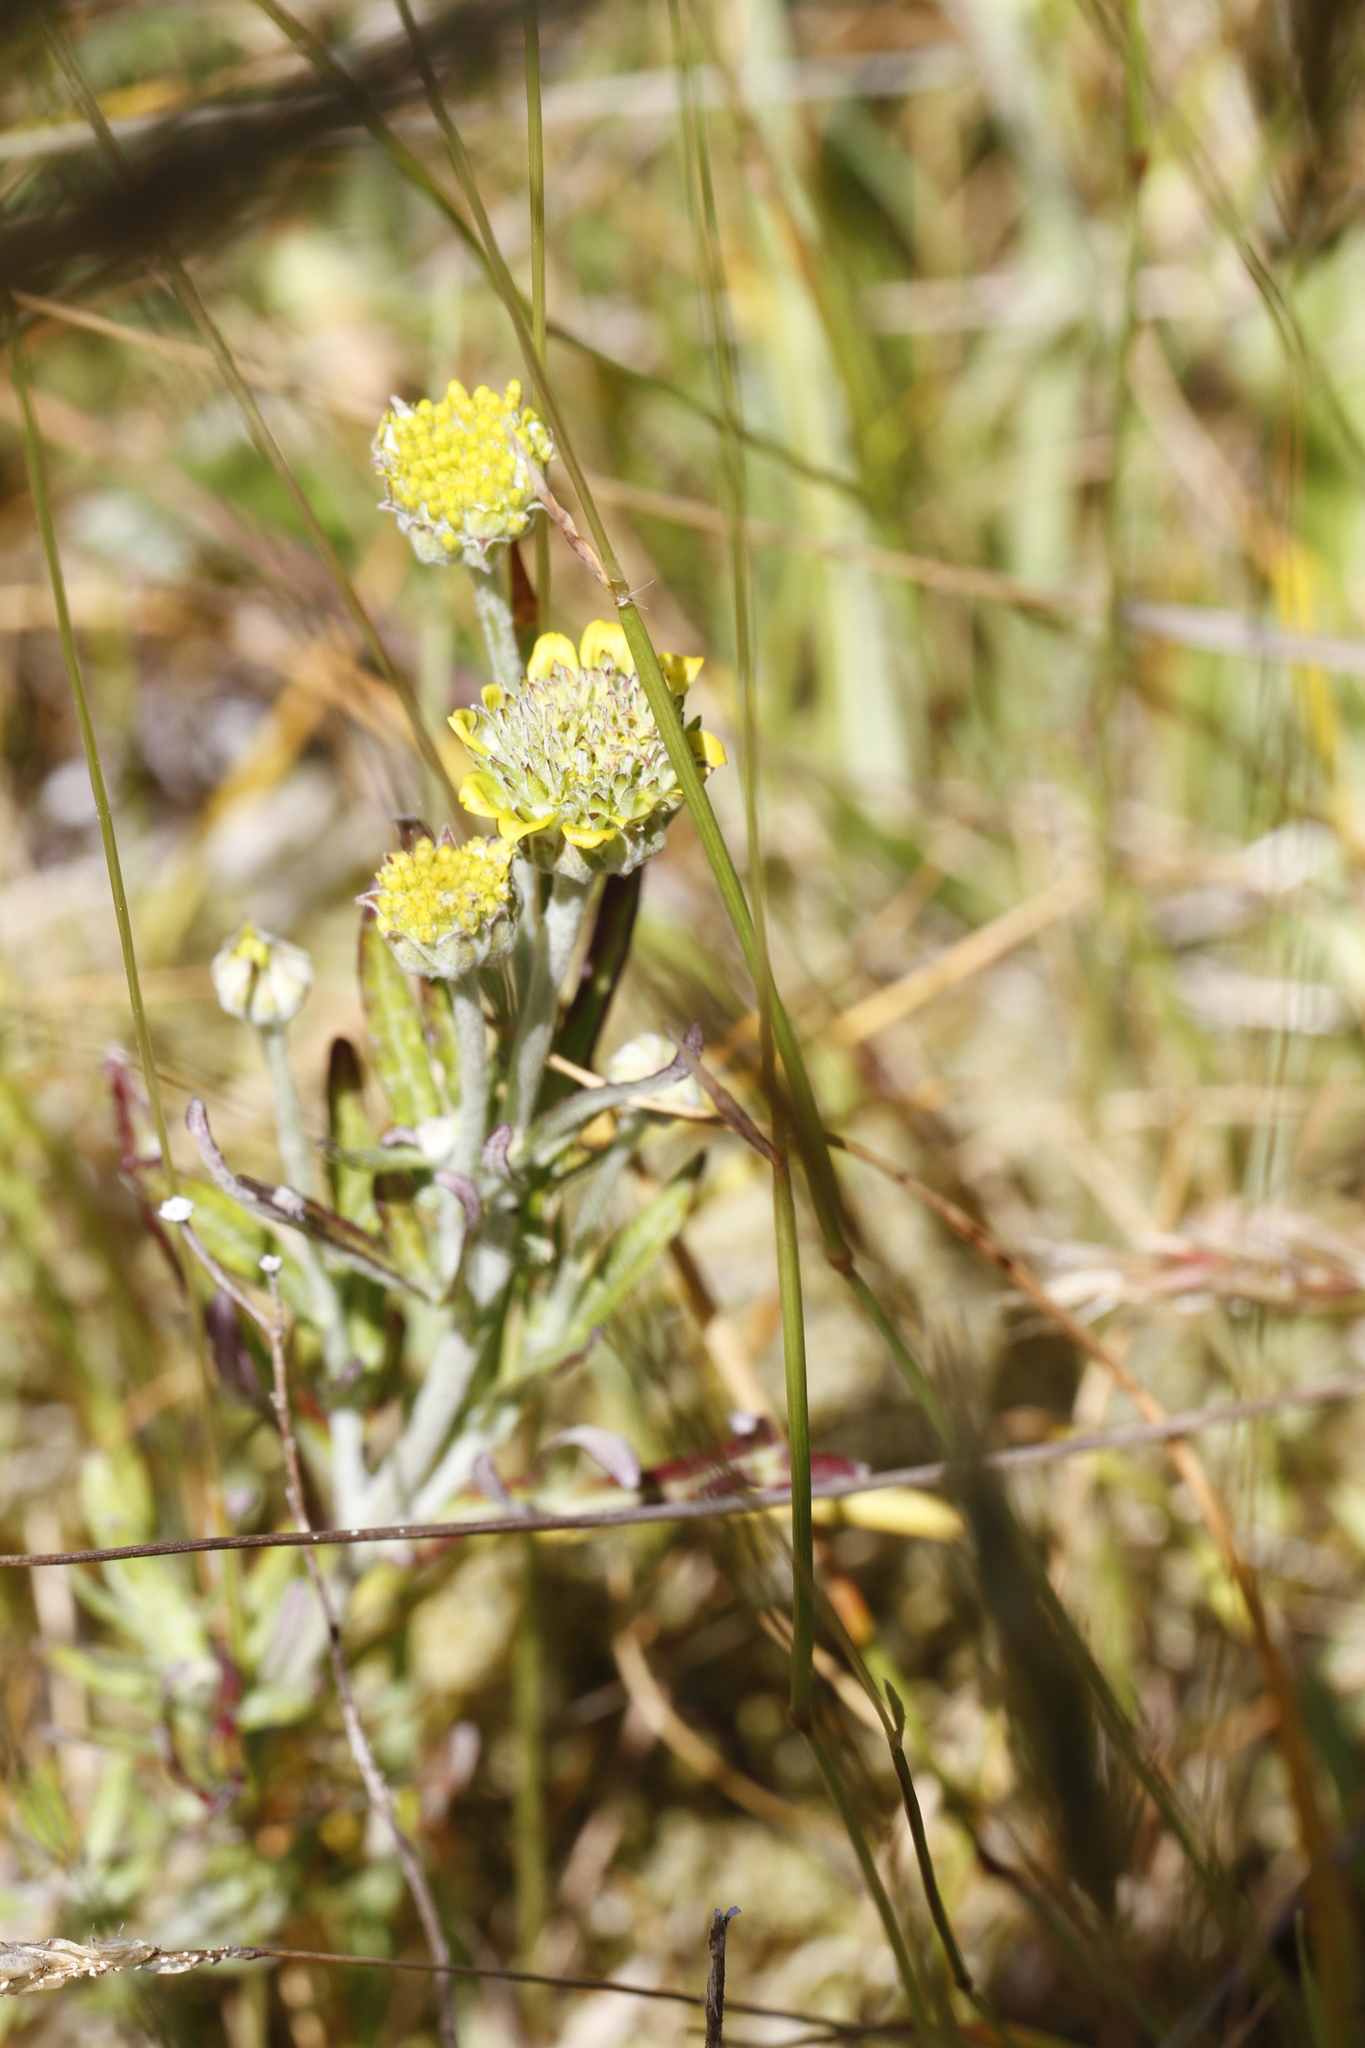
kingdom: Plantae
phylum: Tracheophyta
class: Magnoliopsida
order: Asterales
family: Asteraceae
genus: Eriophyllum
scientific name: Eriophyllum lanatum
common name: Common woolly-sunflower
